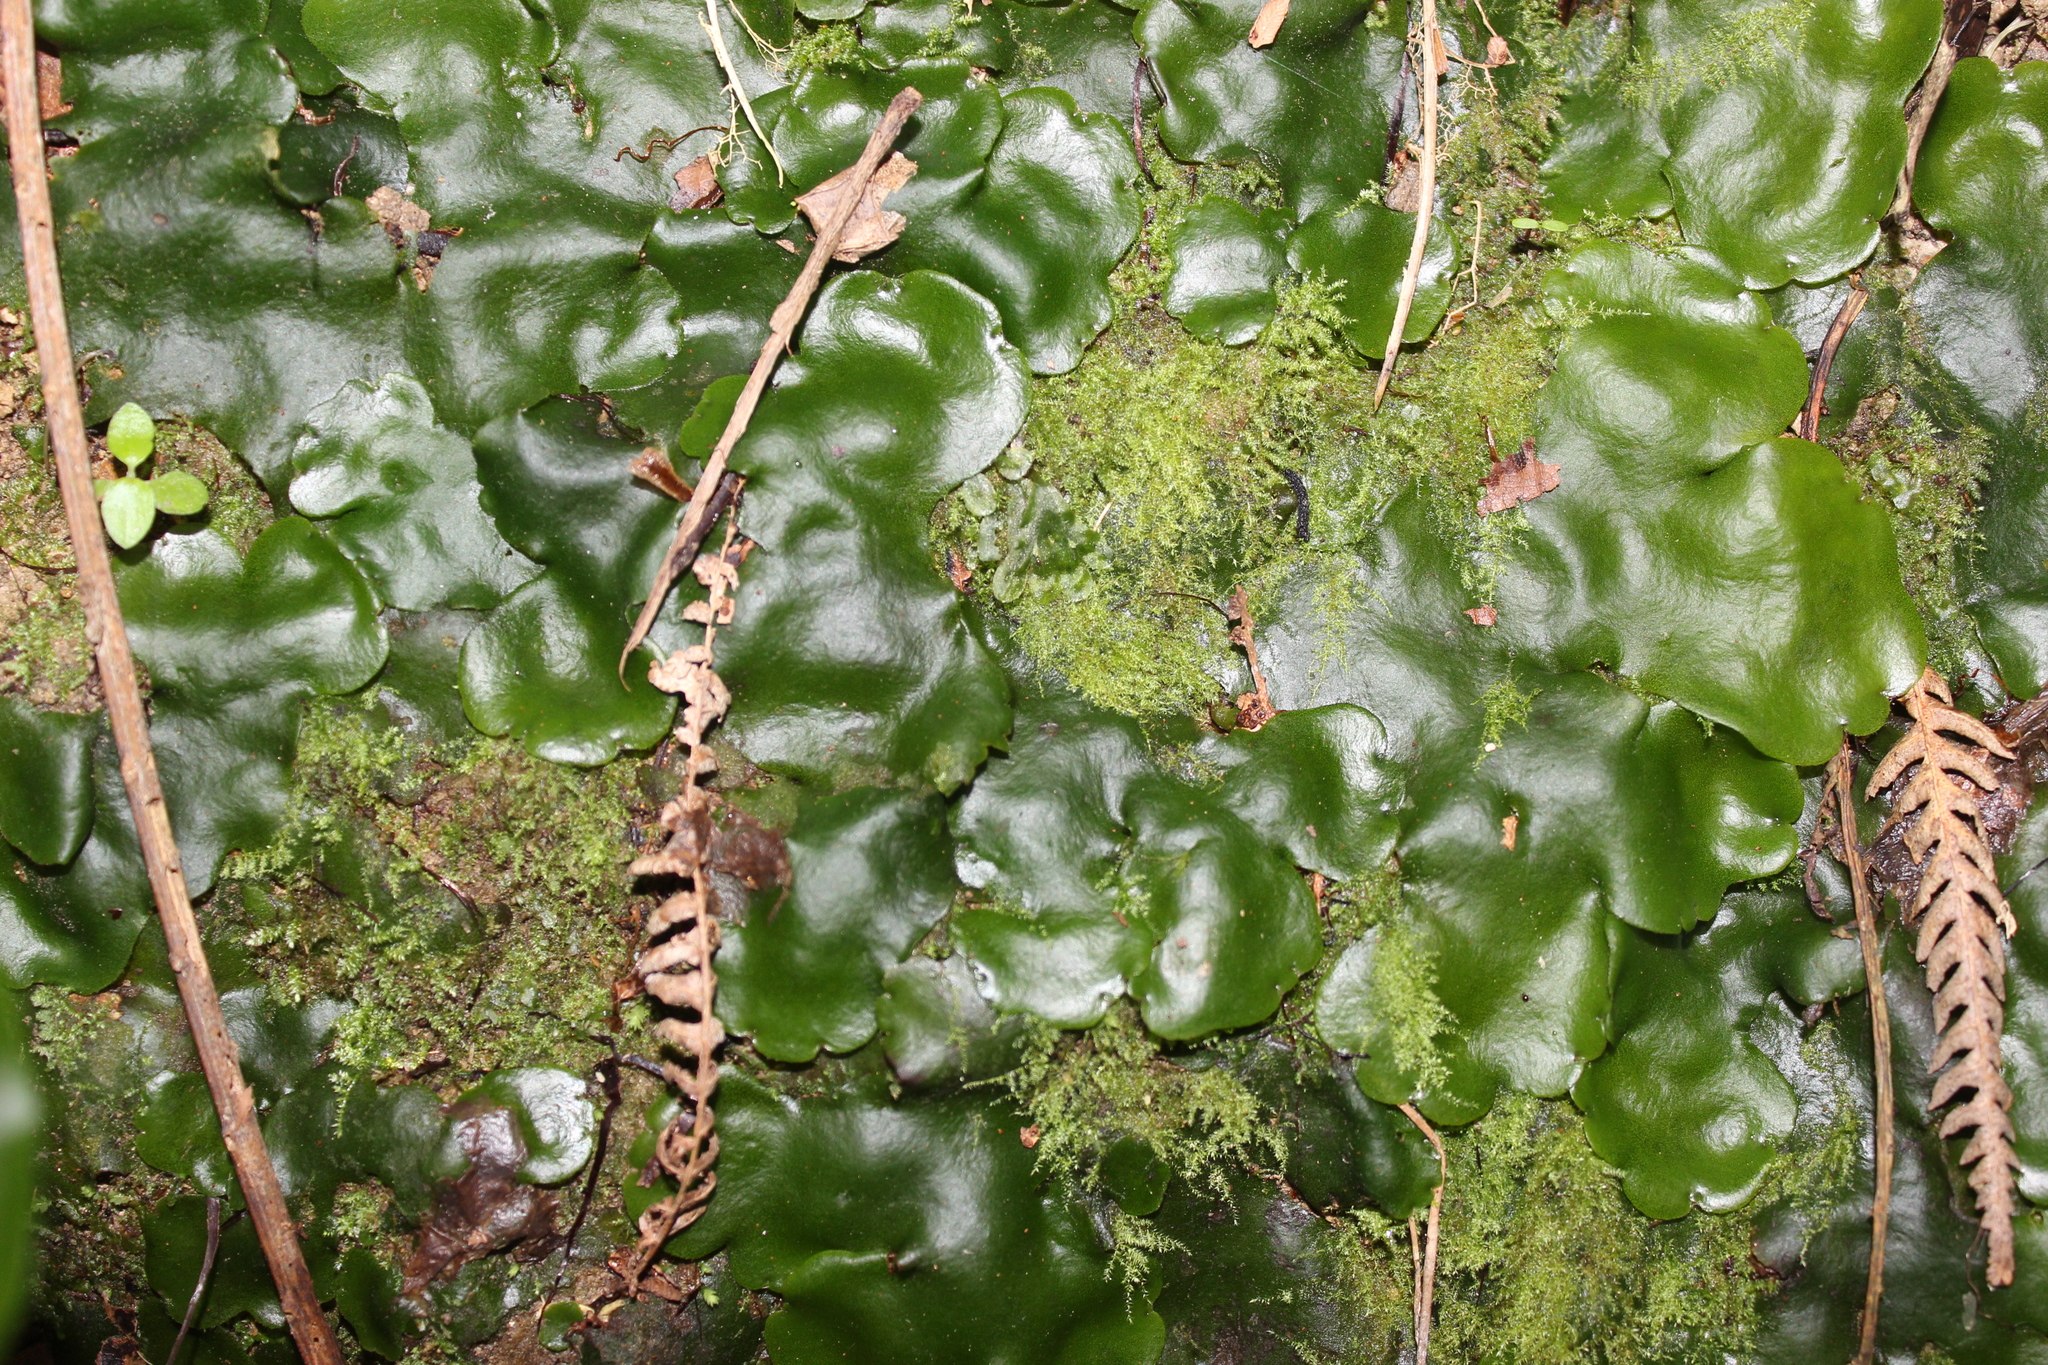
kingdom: Plantae
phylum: Marchantiophyta
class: Marchantiopsida
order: Marchantiales
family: Monocleaceae
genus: Monoclea
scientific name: Monoclea forsteri
